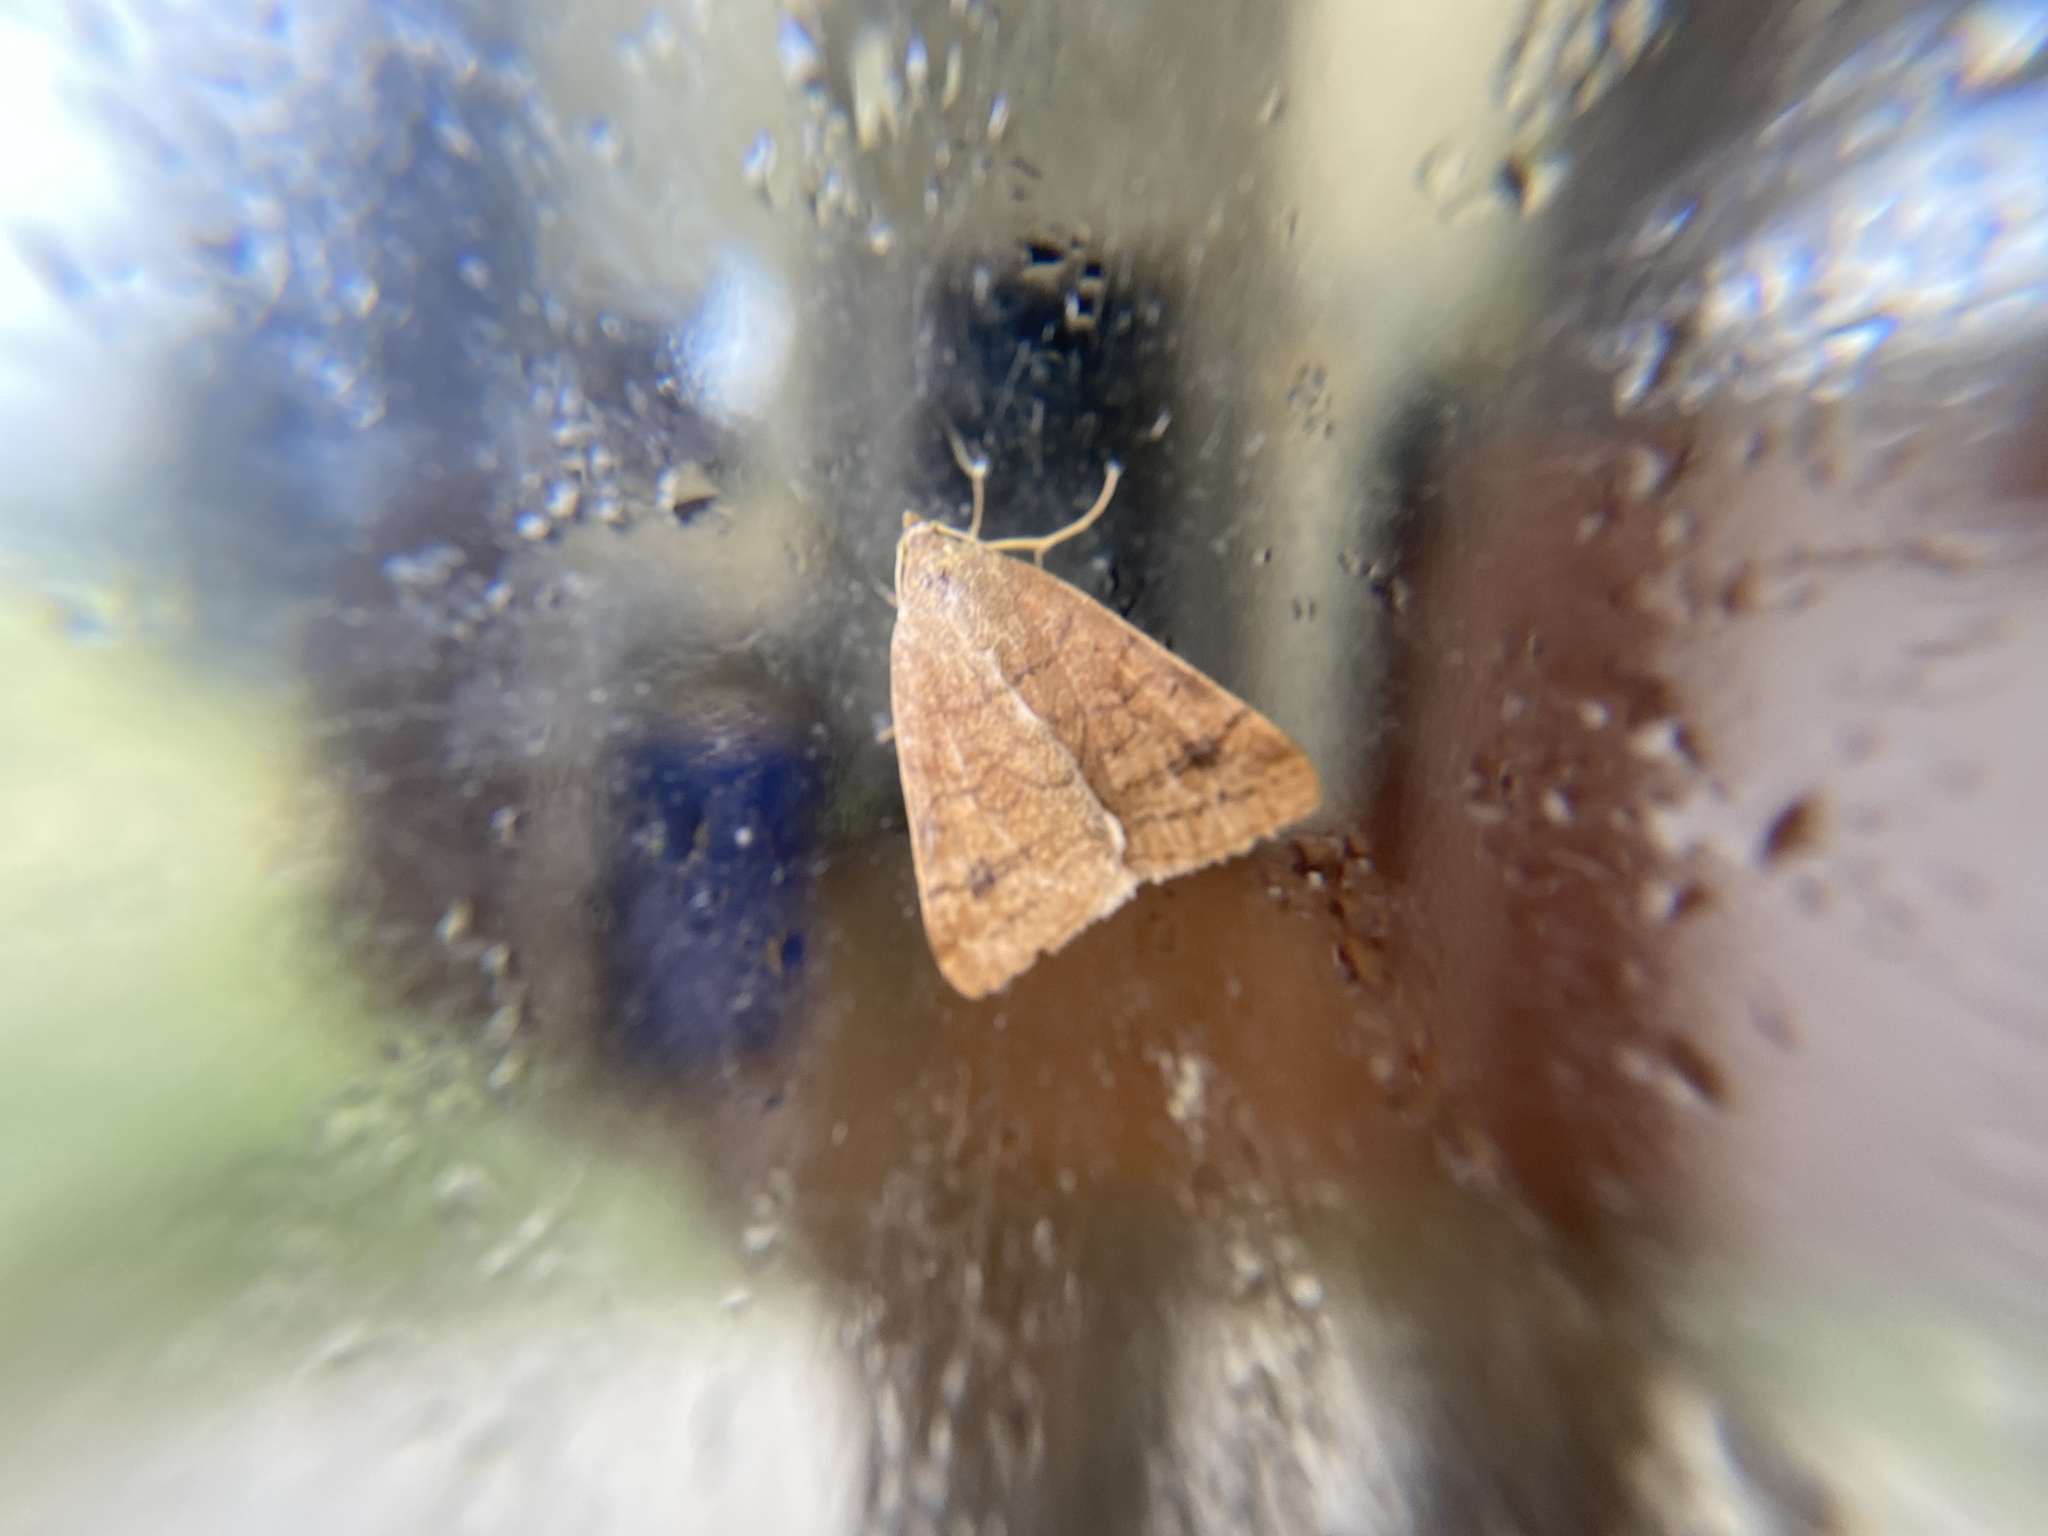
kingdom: Animalia
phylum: Arthropoda
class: Insecta
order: Lepidoptera
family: Erebidae
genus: Caenurgia
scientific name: Caenurgia chloropha
